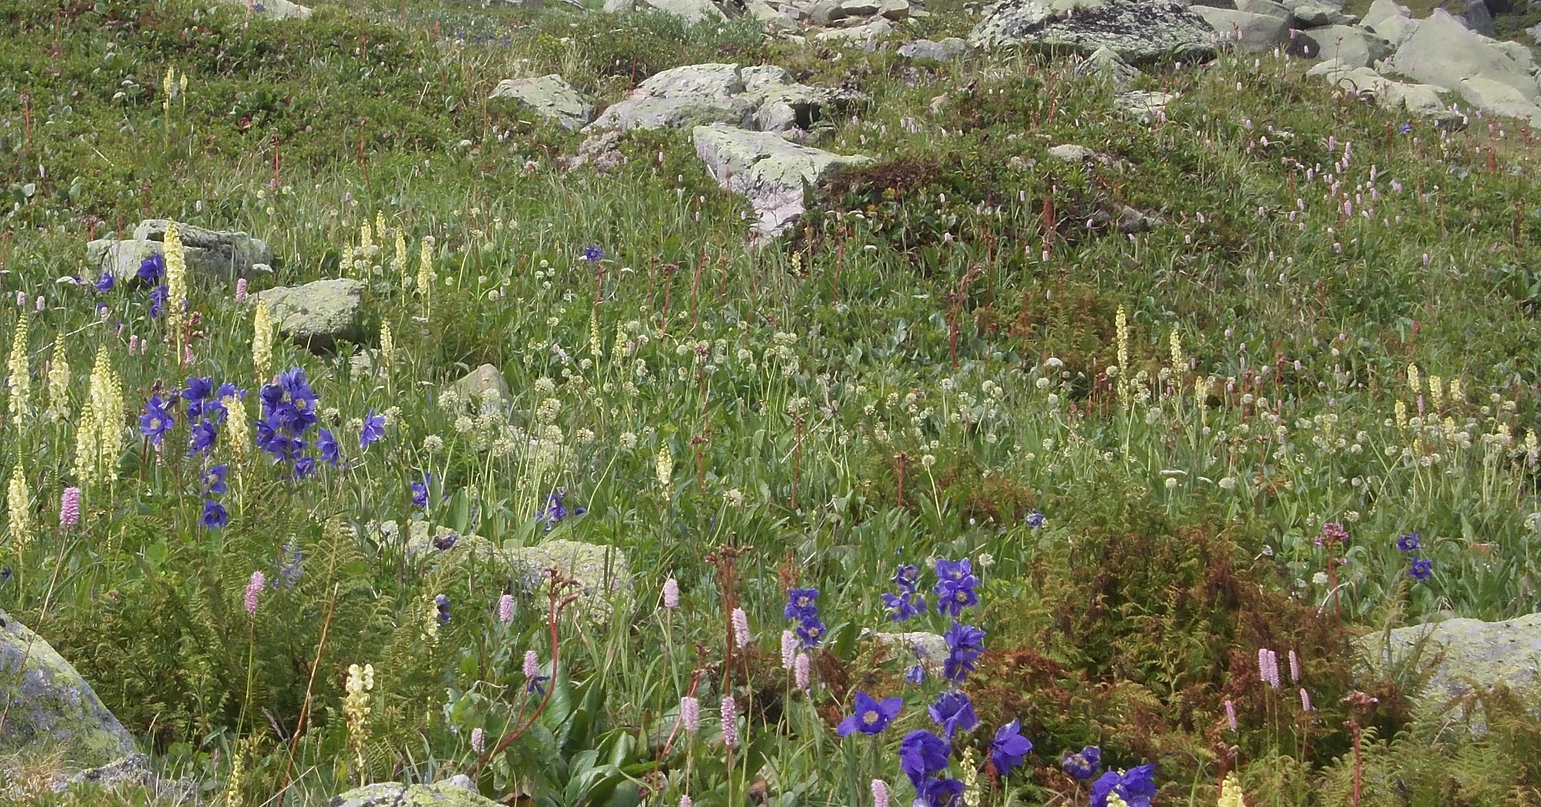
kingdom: Plantae
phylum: Tracheophyta
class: Liliopsida
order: Asparagales
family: Amaryllidaceae
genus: Allium
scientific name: Allium microdictyon
